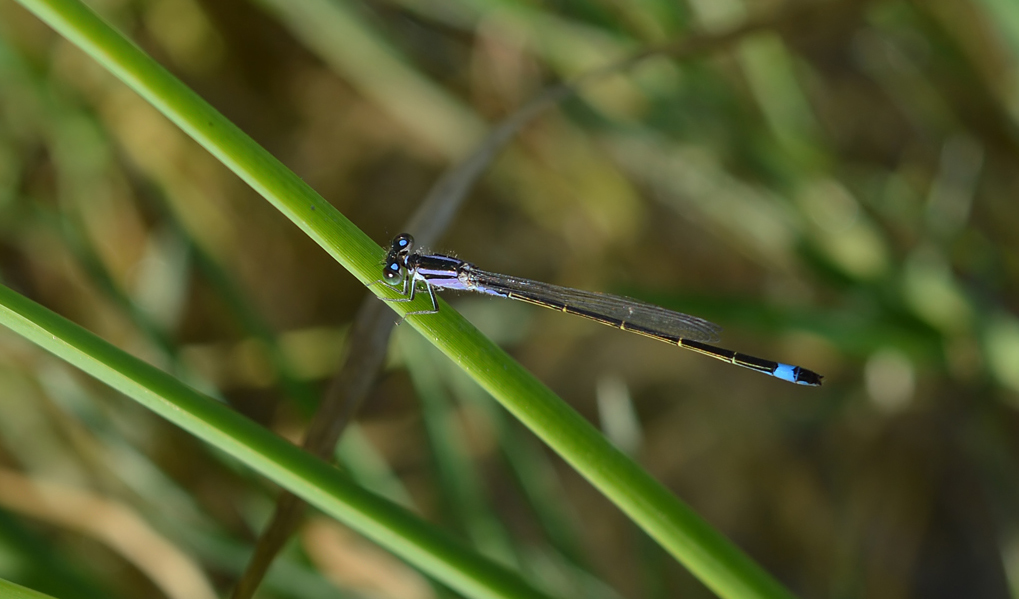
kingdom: Animalia
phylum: Arthropoda
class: Insecta
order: Odonata
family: Coenagrionidae
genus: Ischnura
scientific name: Ischnura elegans
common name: Blue-tailed damselfly
